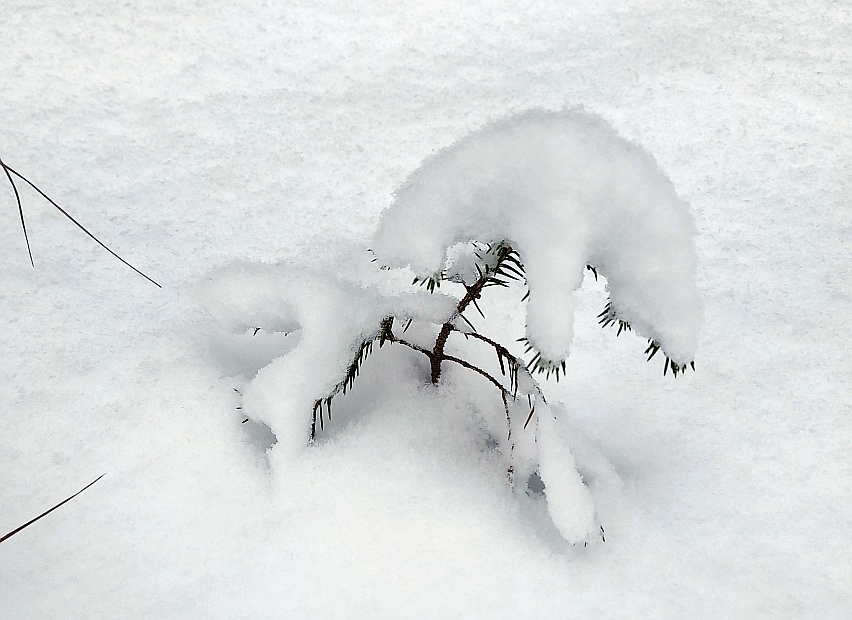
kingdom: Plantae
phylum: Tracheophyta
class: Pinopsida
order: Pinales
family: Pinaceae
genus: Picea
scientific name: Picea abies
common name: Norway spruce
